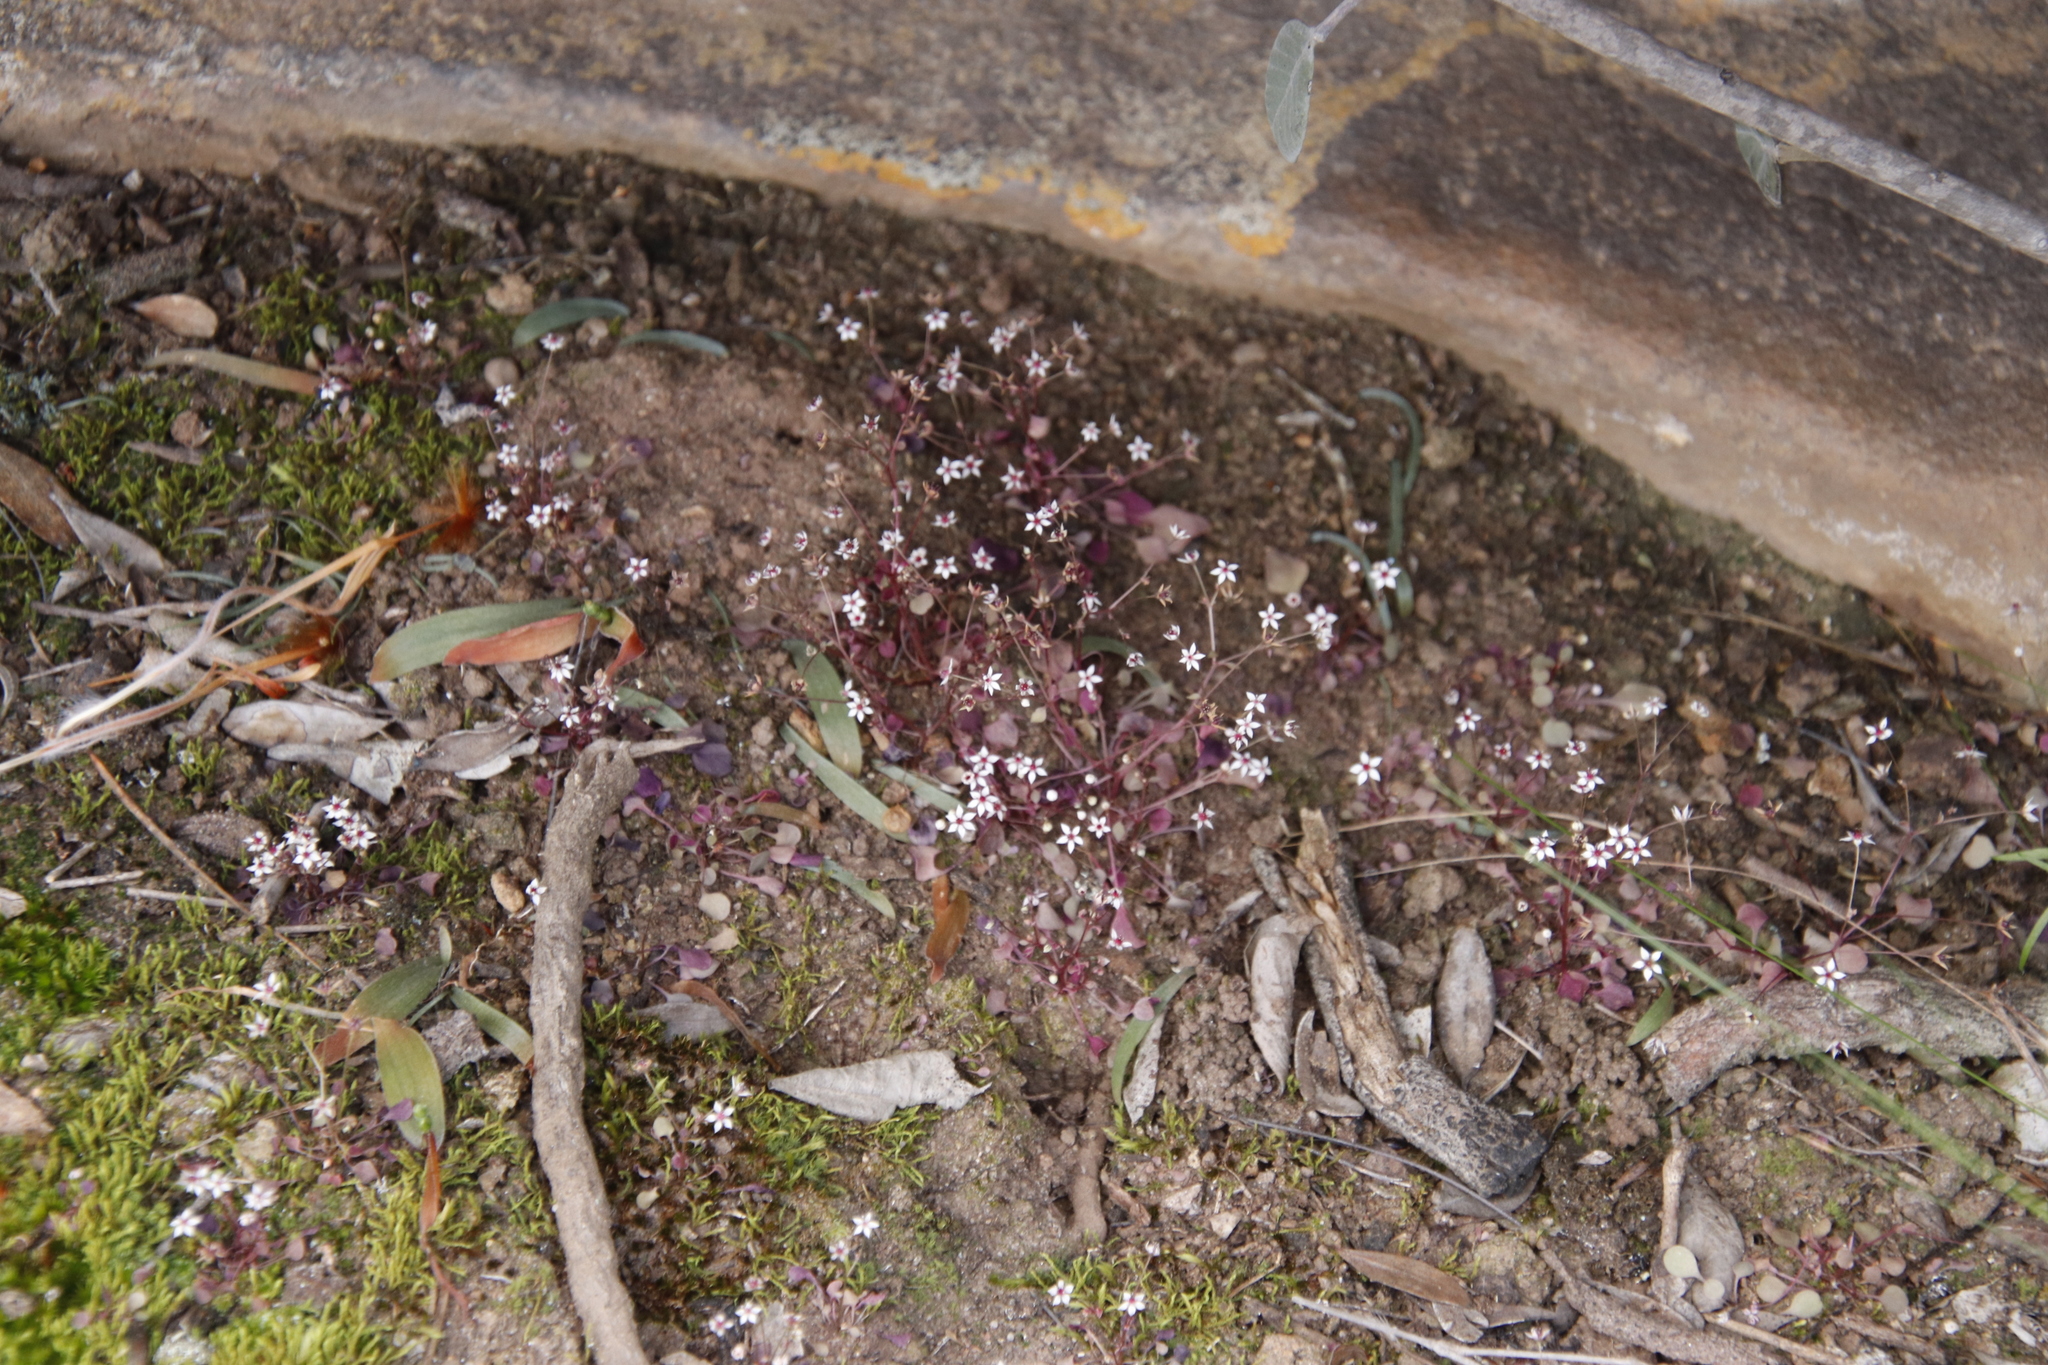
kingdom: Plantae
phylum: Tracheophyta
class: Magnoliopsida
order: Saxifragales
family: Crassulaceae
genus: Crassula
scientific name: Crassula dentata
